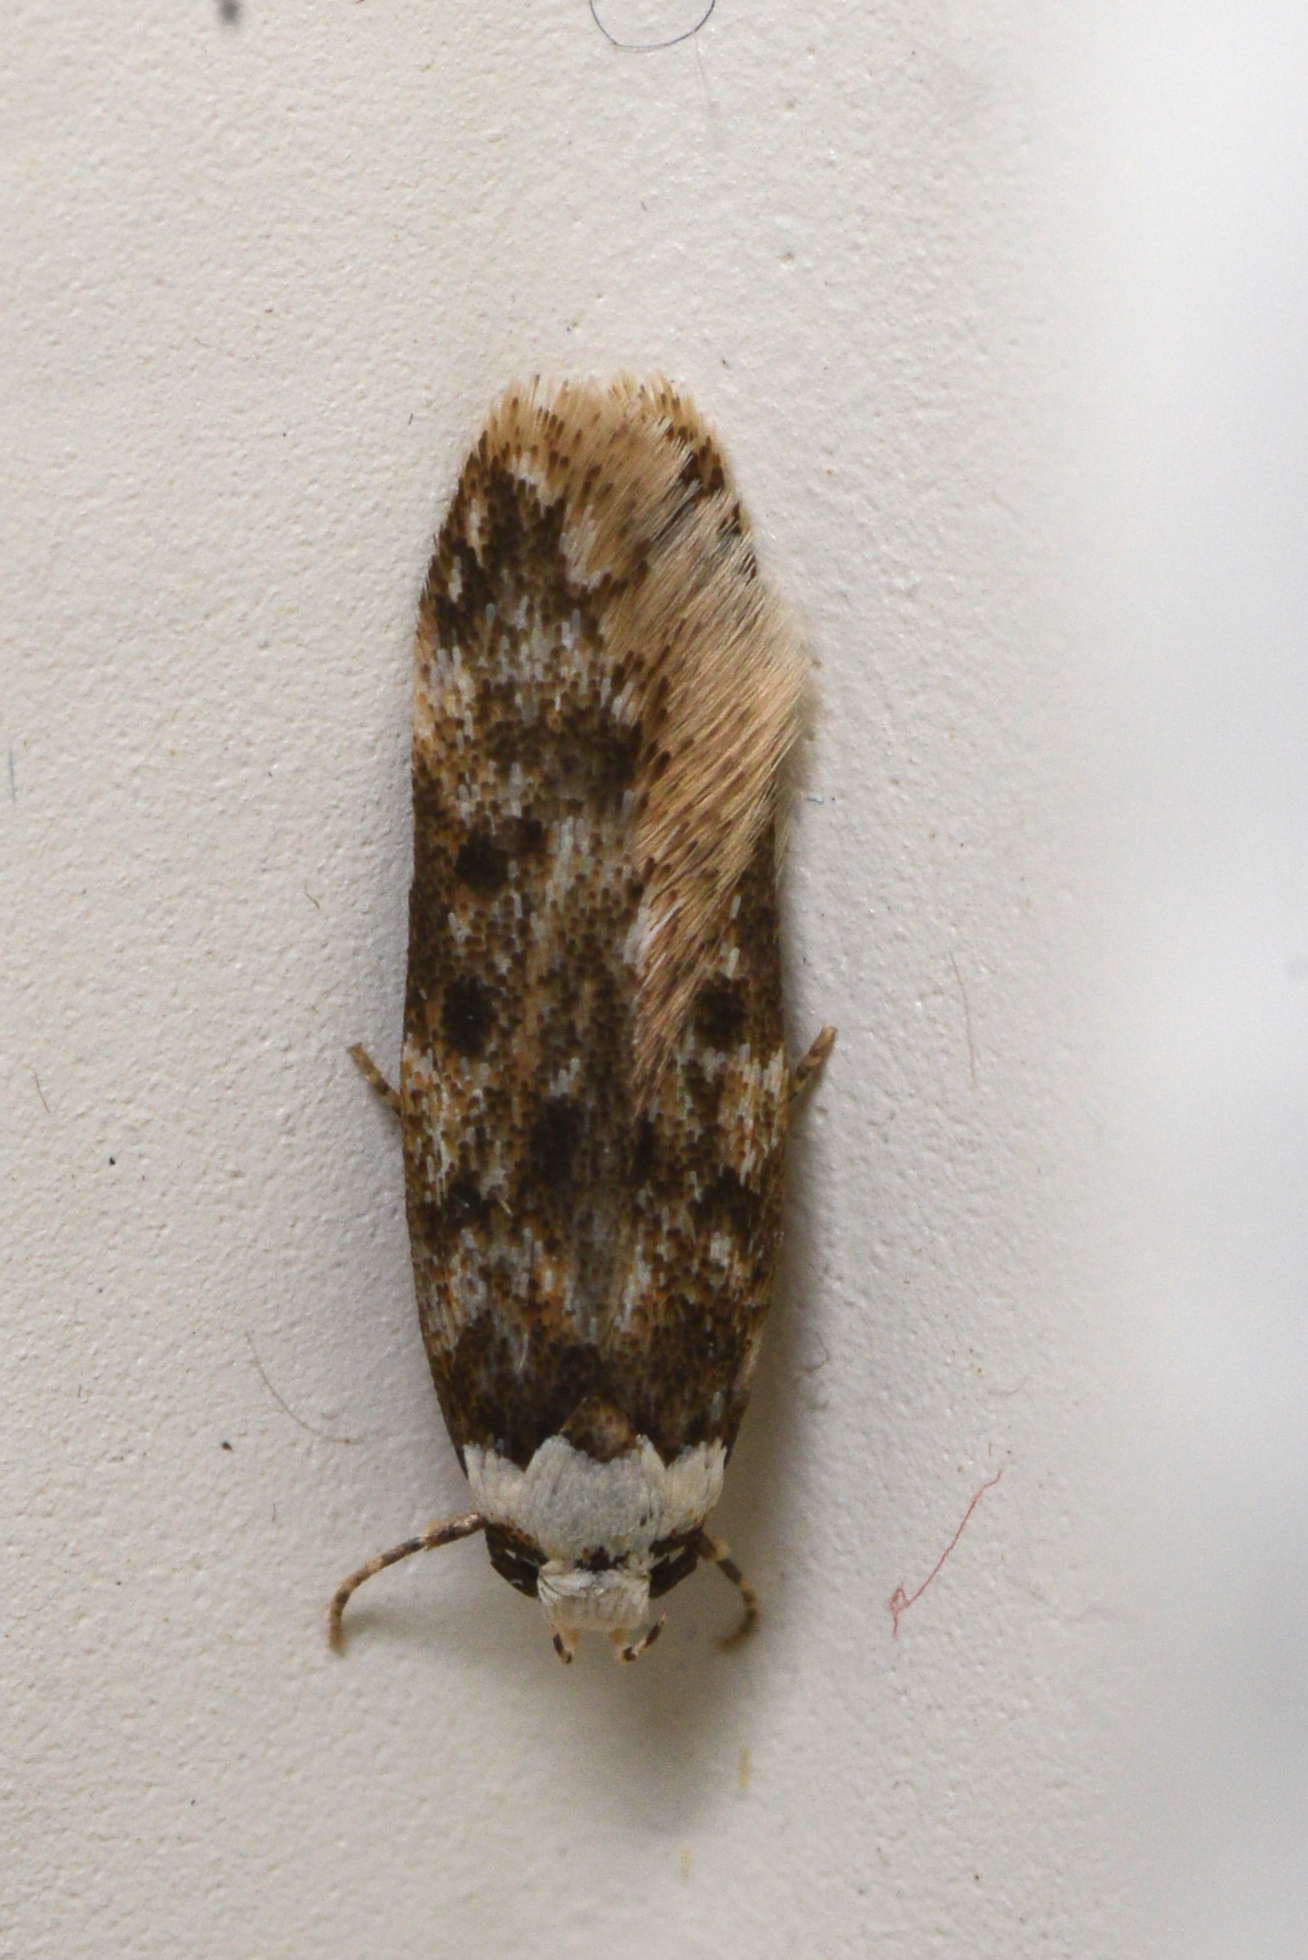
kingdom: Animalia
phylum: Arthropoda
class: Insecta
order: Lepidoptera
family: Oecophoridae
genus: Endrosis
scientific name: Endrosis sarcitrella
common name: White-shouldered house moth
